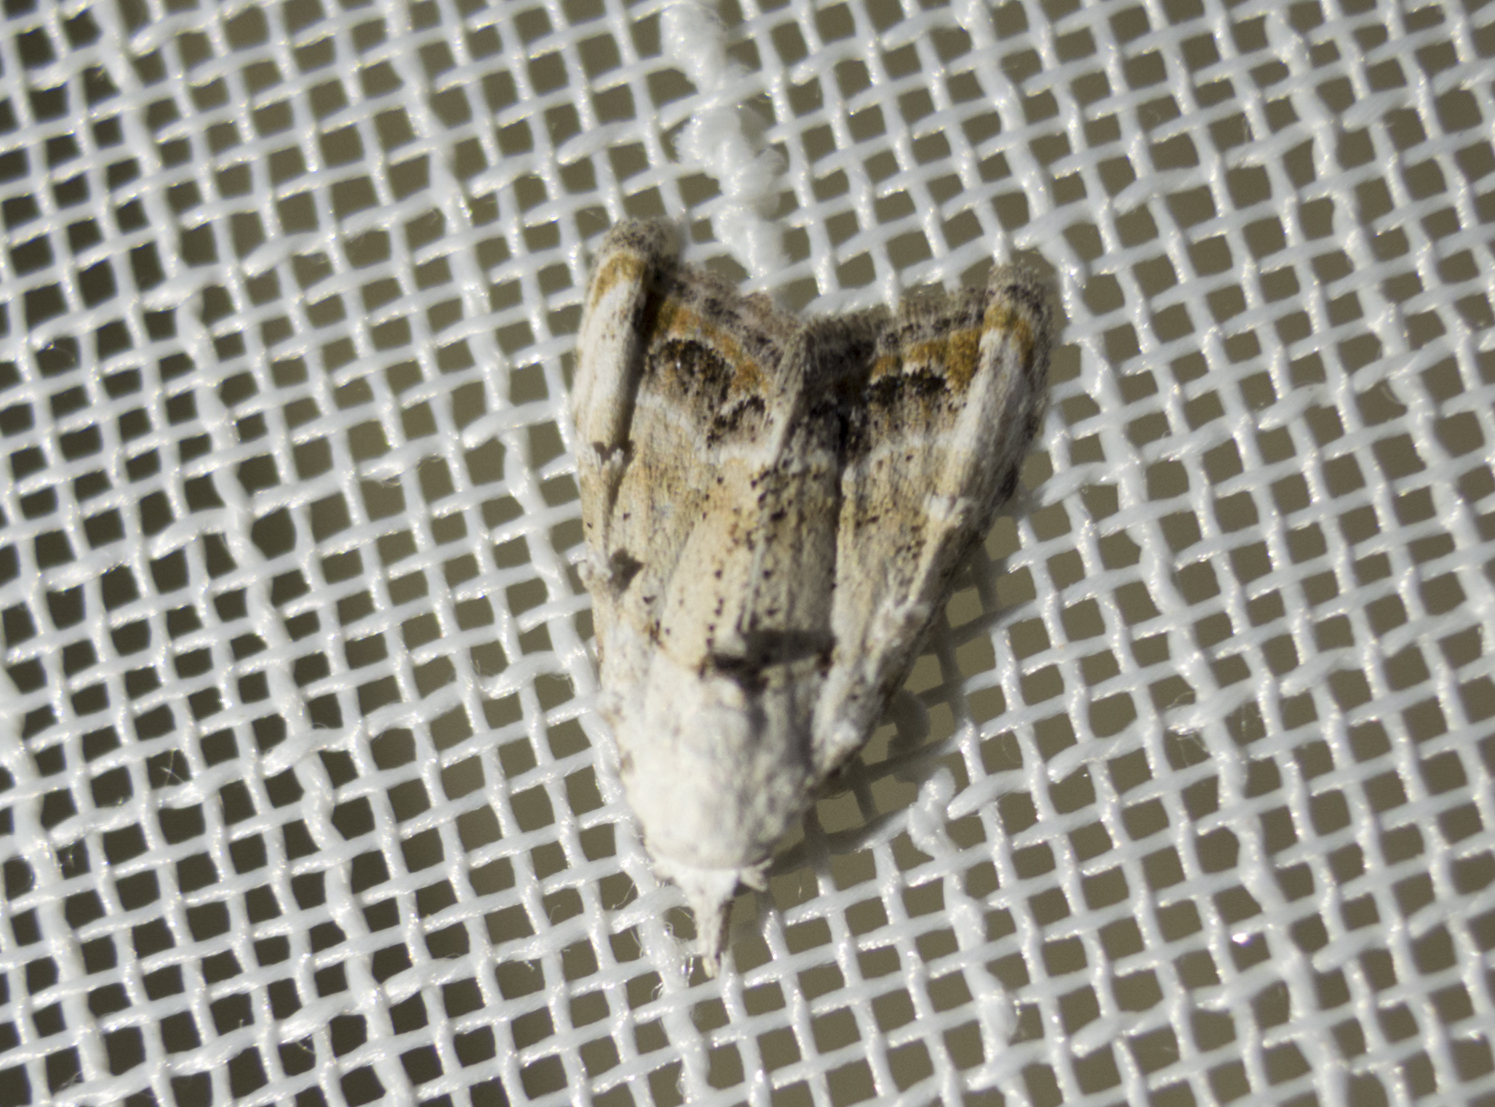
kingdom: Animalia
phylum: Arthropoda
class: Insecta
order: Lepidoptera
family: Nolidae
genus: Nola
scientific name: Nola chlamitulalis
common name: Jersey black arches
